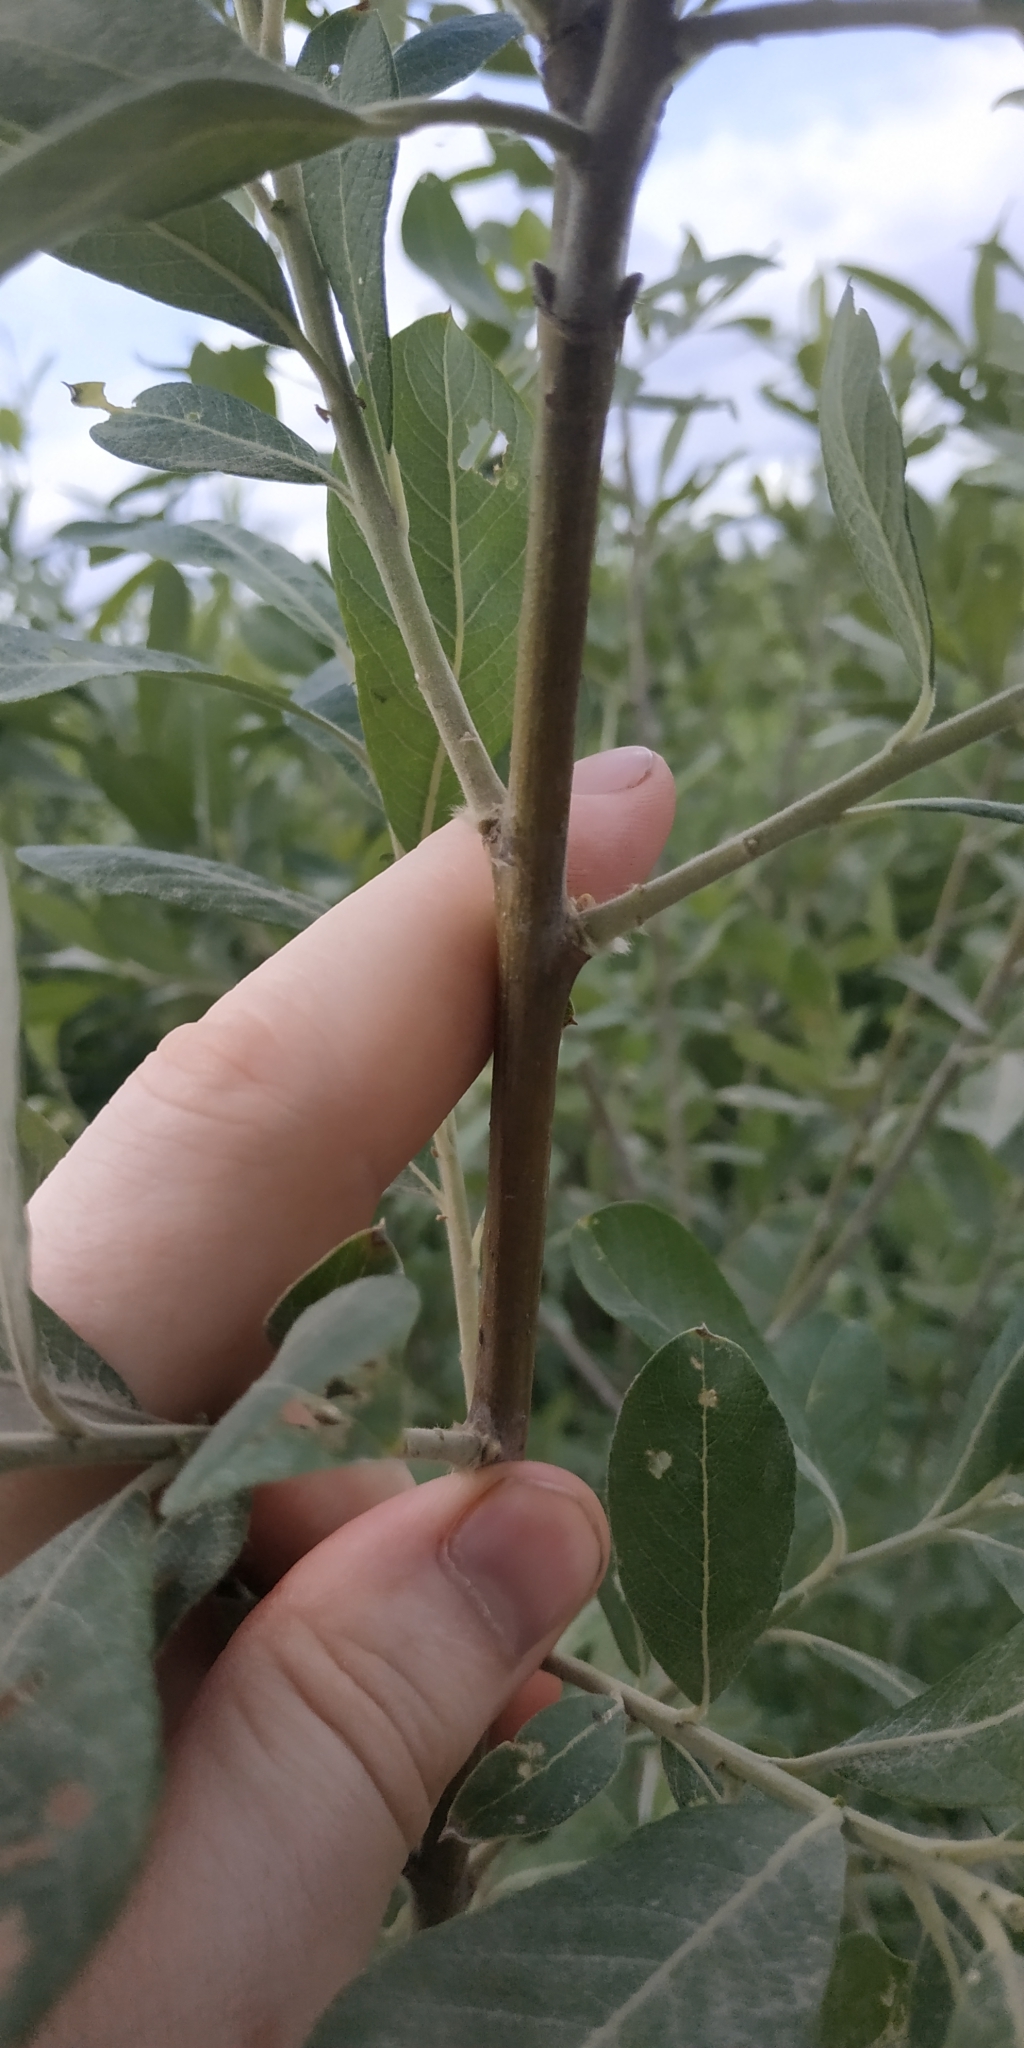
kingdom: Plantae
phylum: Tracheophyta
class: Magnoliopsida
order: Malpighiales
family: Salicaceae
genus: Salix
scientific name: Salix cinerea
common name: Common sallow
